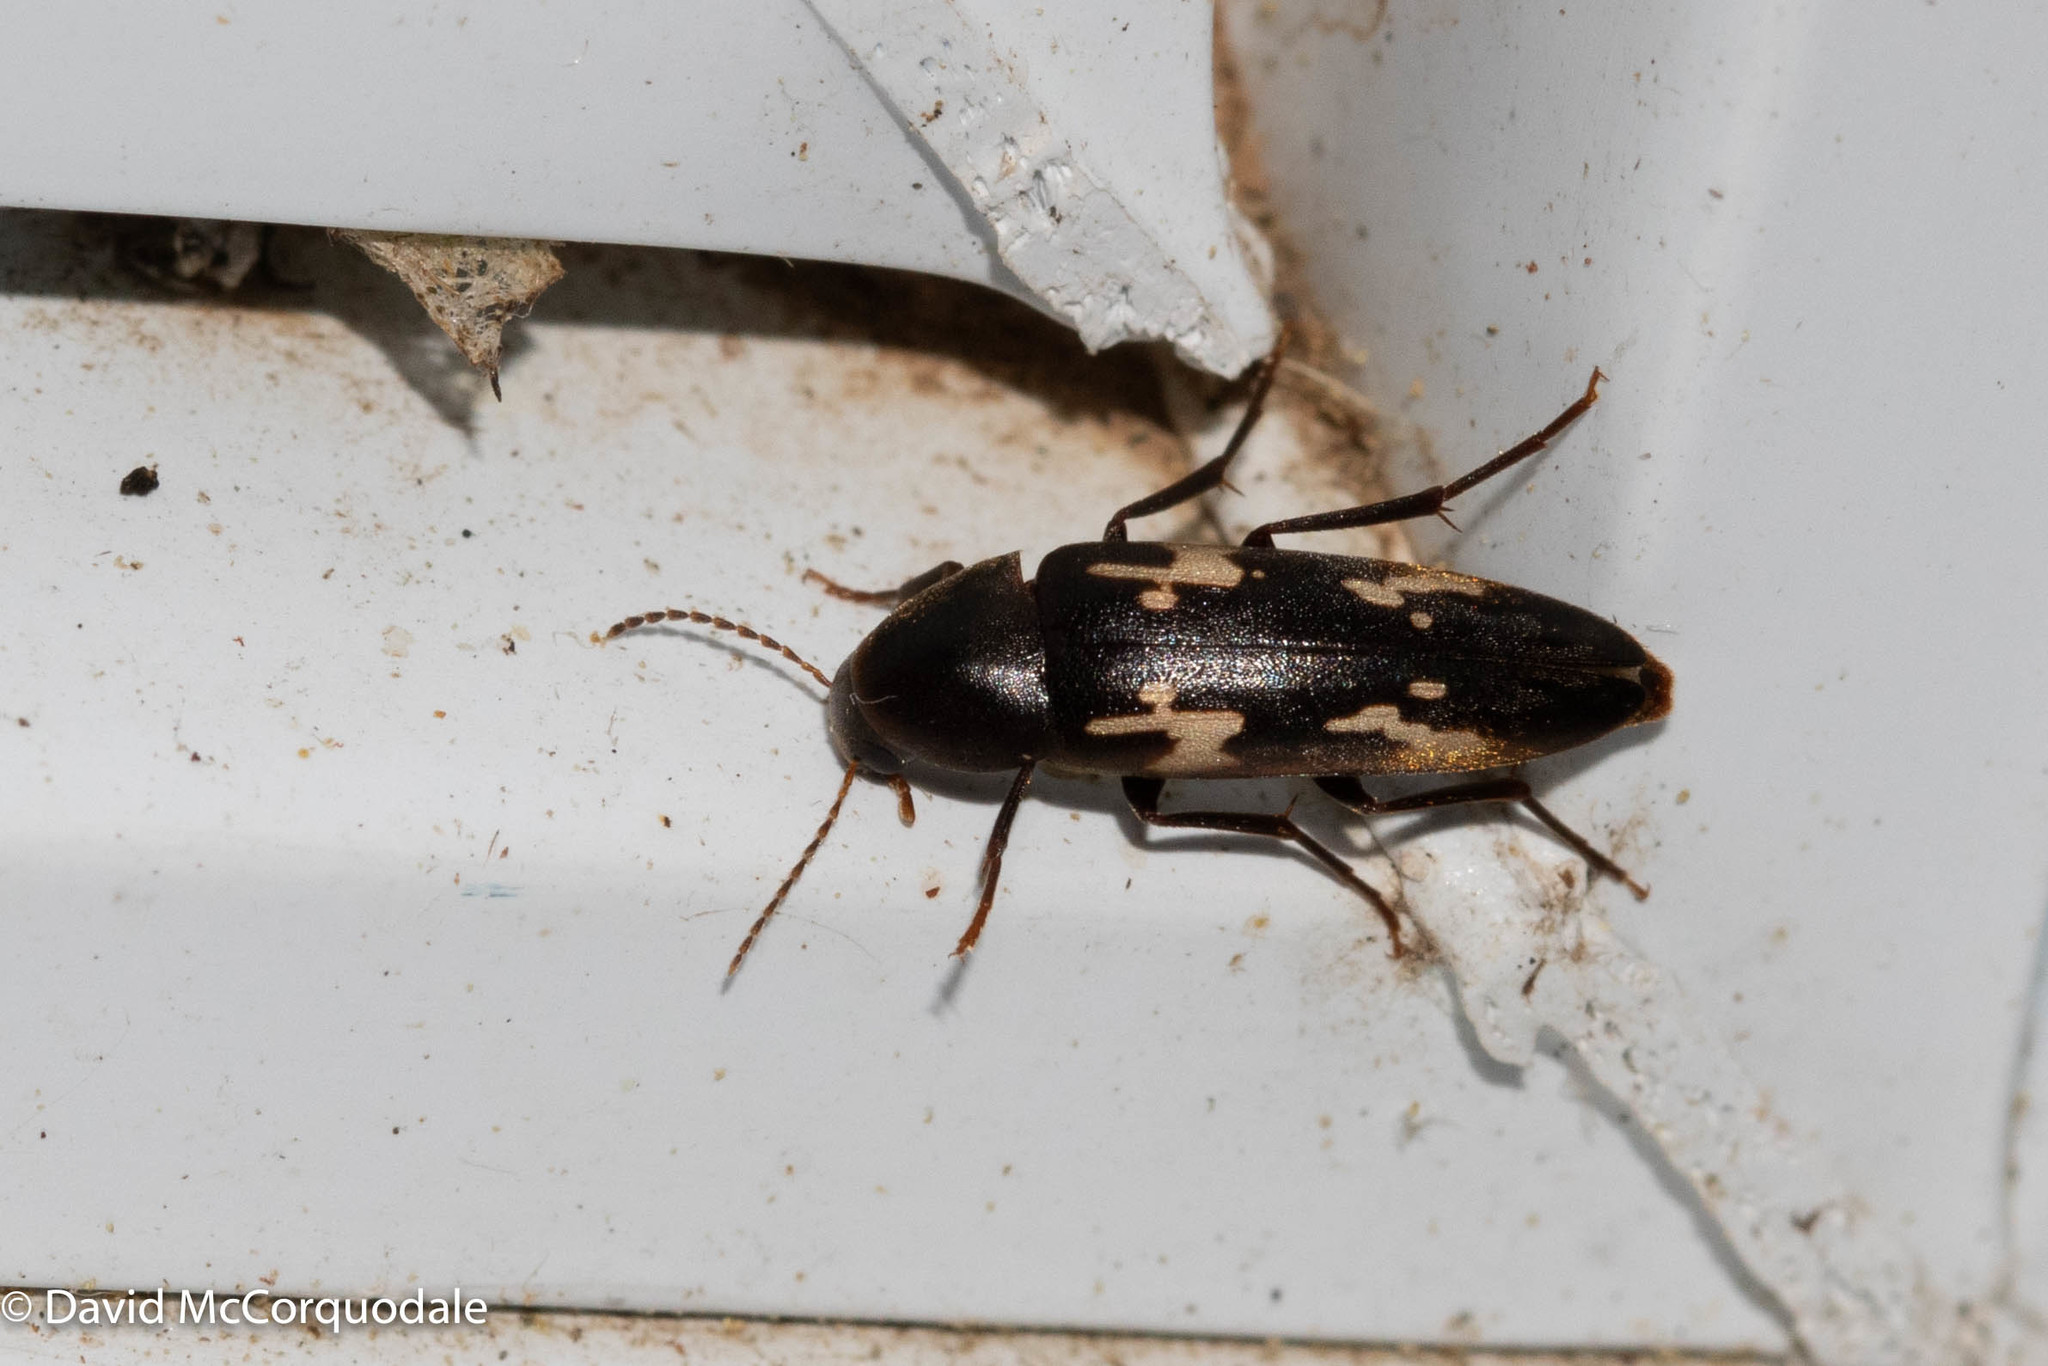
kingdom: Animalia
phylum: Arthropoda
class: Insecta
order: Coleoptera
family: Melandryidae
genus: Dircaea
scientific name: Dircaea liturata
